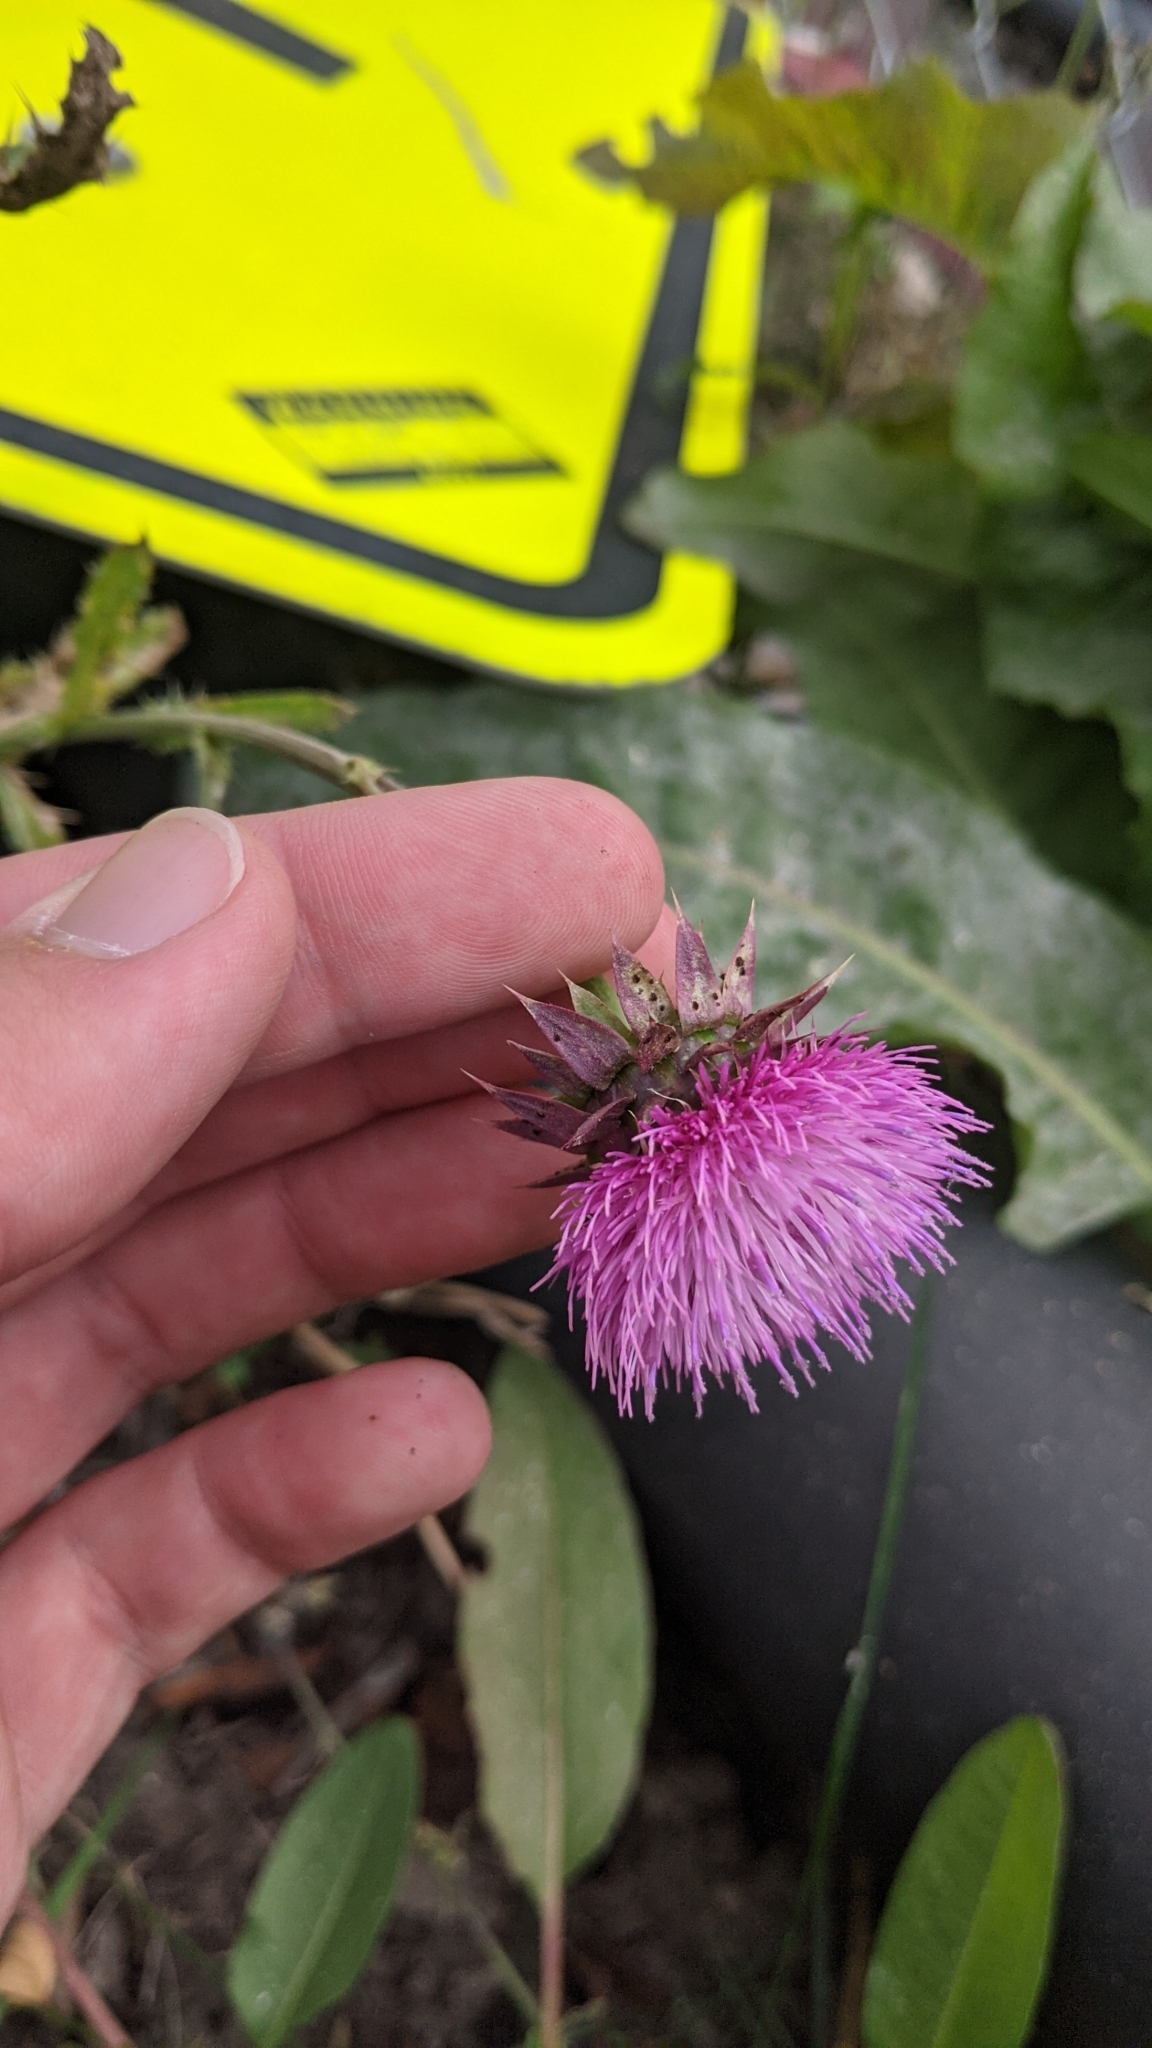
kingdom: Plantae
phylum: Tracheophyta
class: Magnoliopsida
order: Asterales
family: Asteraceae
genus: Carduus
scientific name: Carduus nutans
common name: Musk thistle
